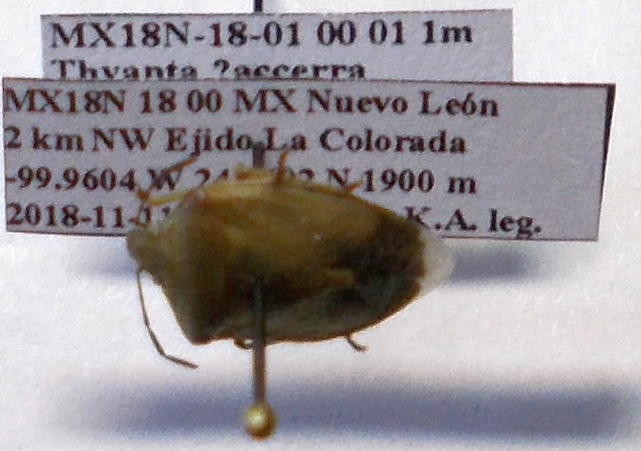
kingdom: Animalia
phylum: Arthropoda
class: Insecta
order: Hemiptera
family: Pentatomidae
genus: Thyanta
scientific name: Thyanta custator
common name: Stink bug
